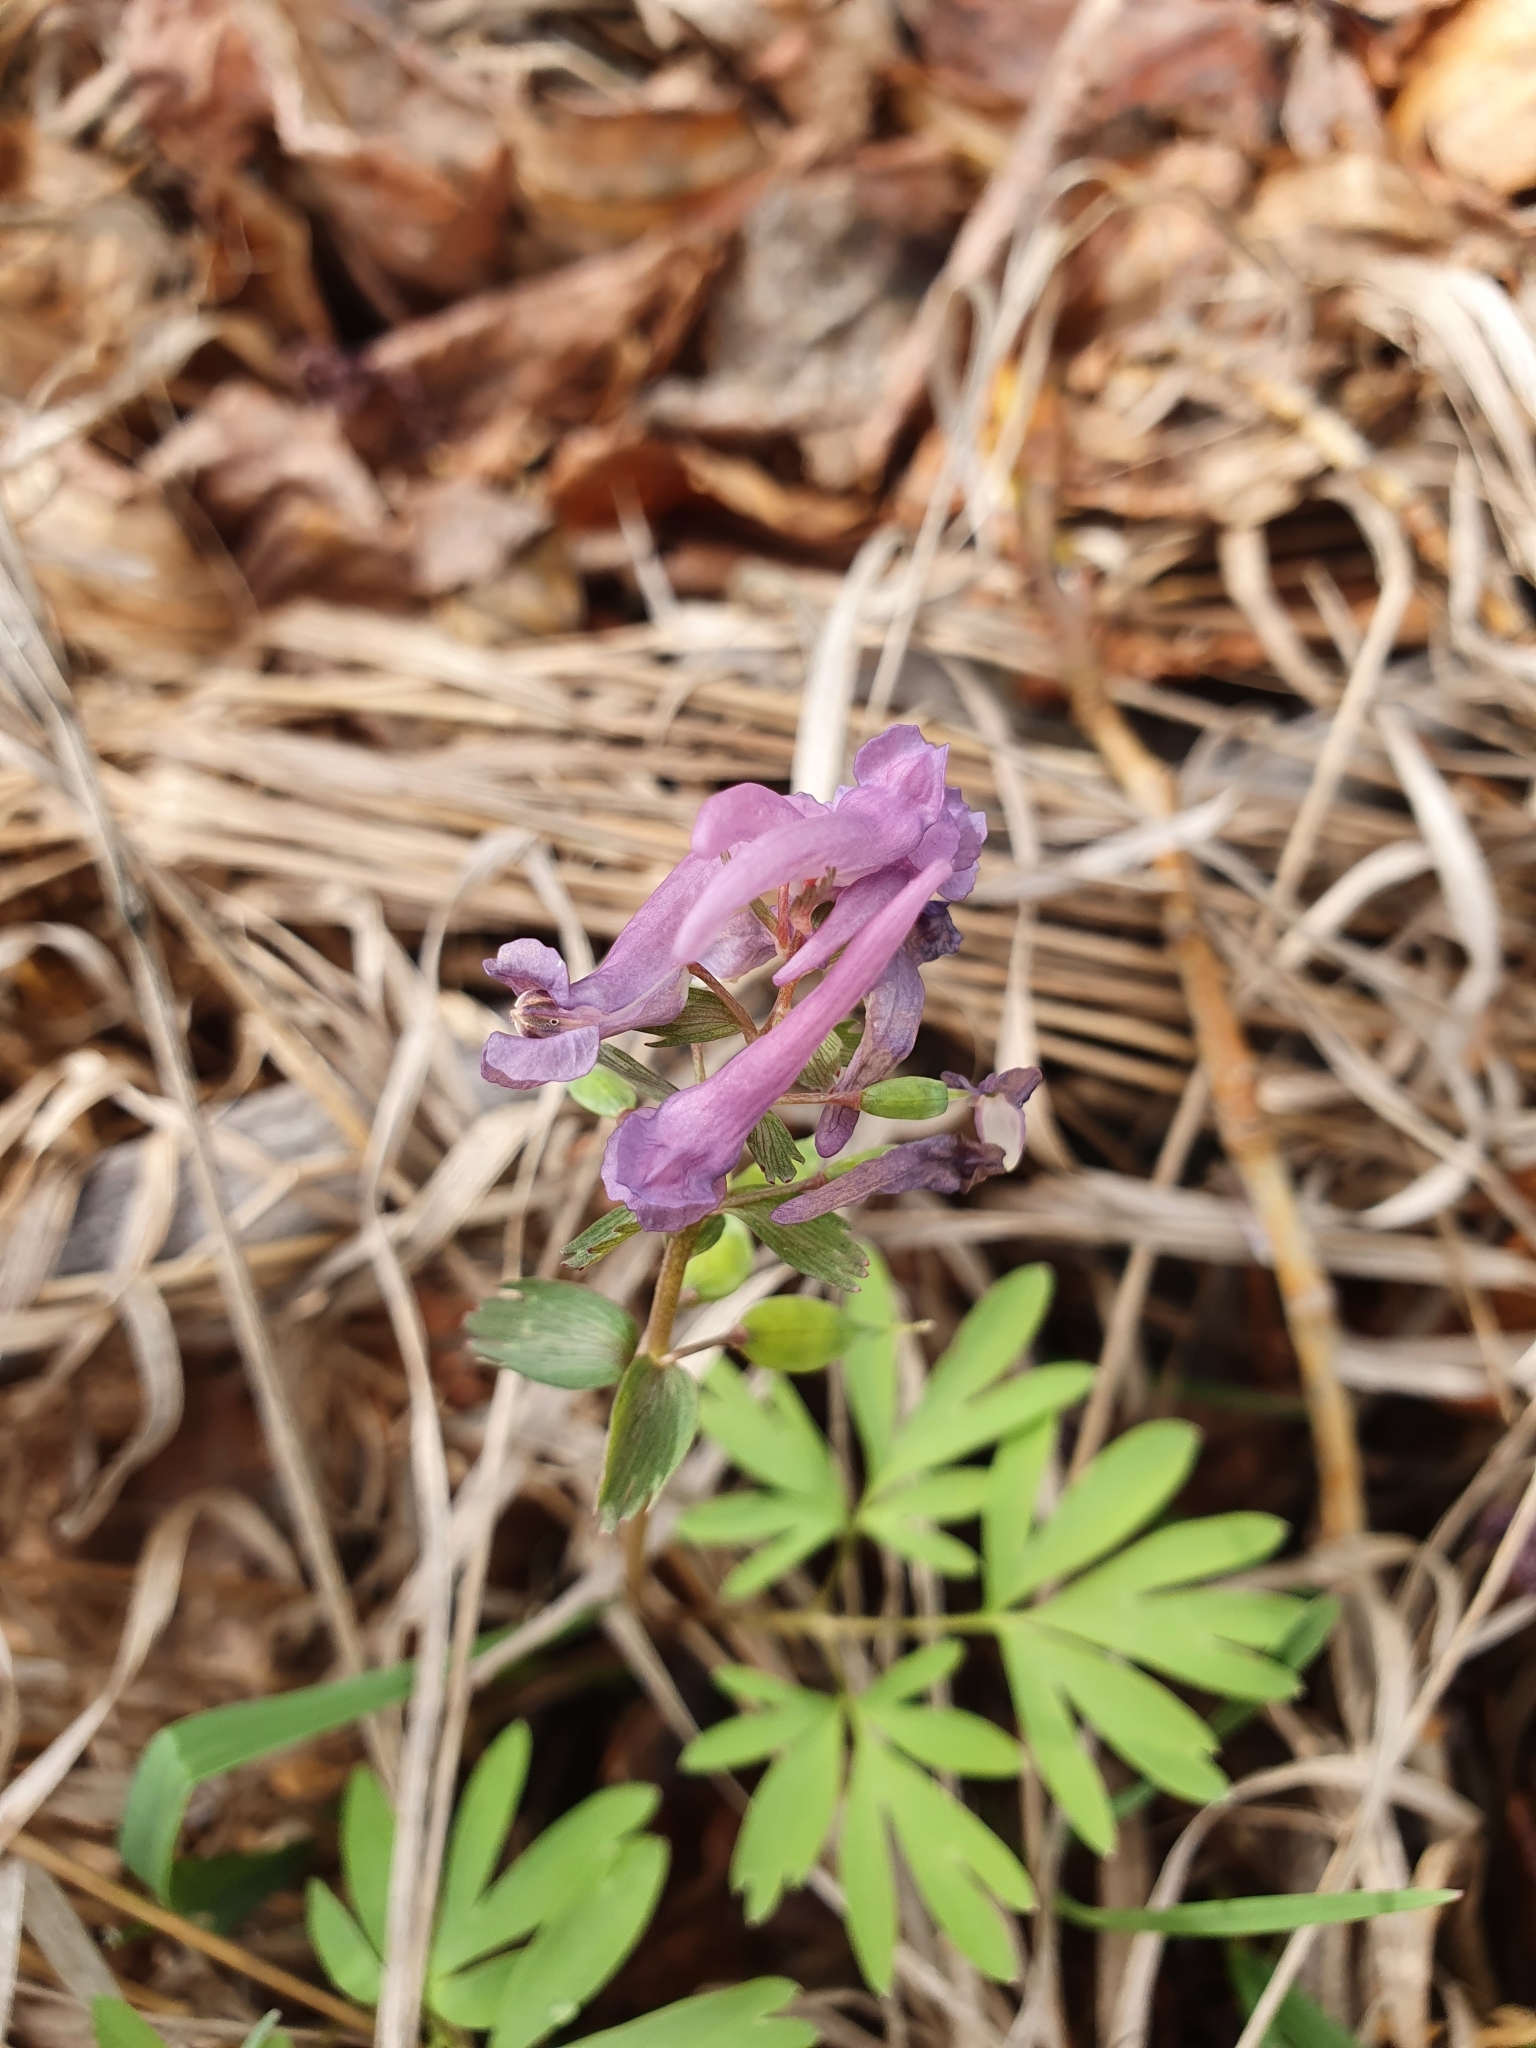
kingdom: Plantae
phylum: Tracheophyta
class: Magnoliopsida
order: Ranunculales
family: Papaveraceae
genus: Corydalis
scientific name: Corydalis solida
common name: Bird-in-a-bush
